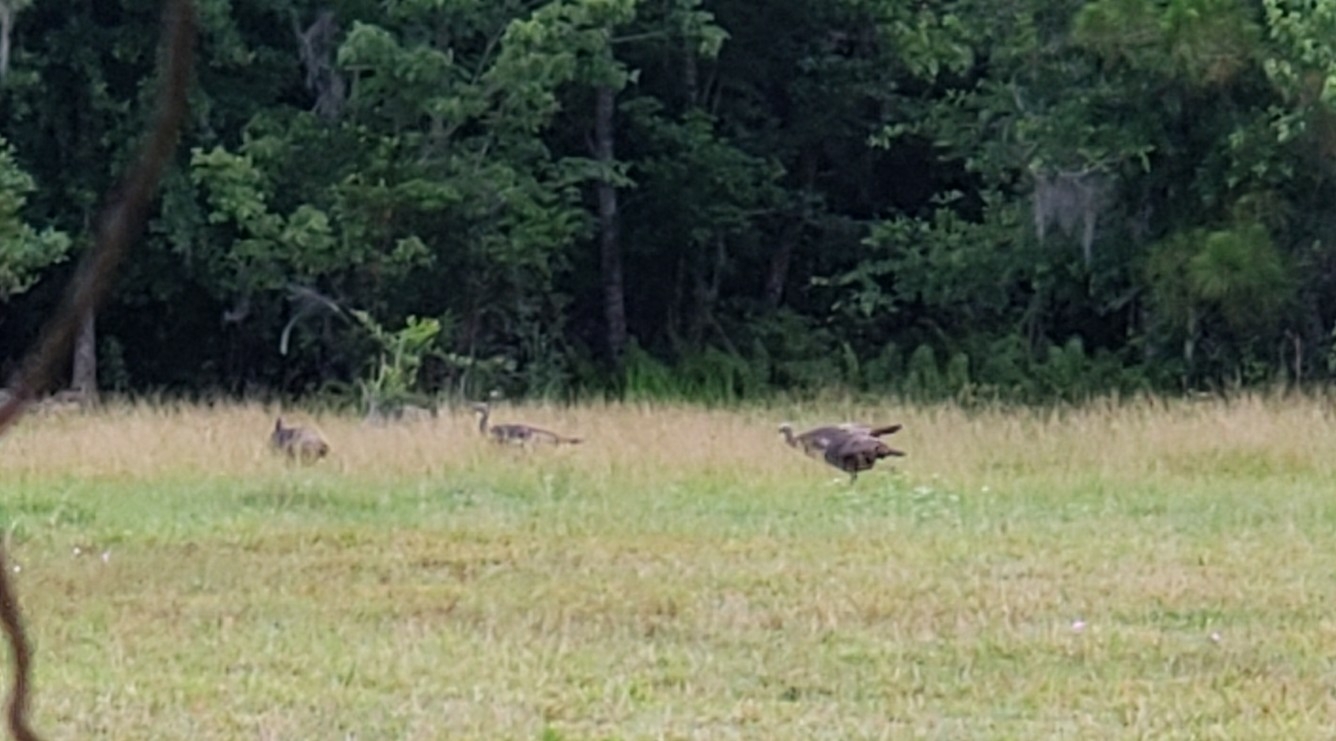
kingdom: Animalia
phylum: Chordata
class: Aves
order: Galliformes
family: Phasianidae
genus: Meleagris
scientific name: Meleagris gallopavo
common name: Wild turkey
